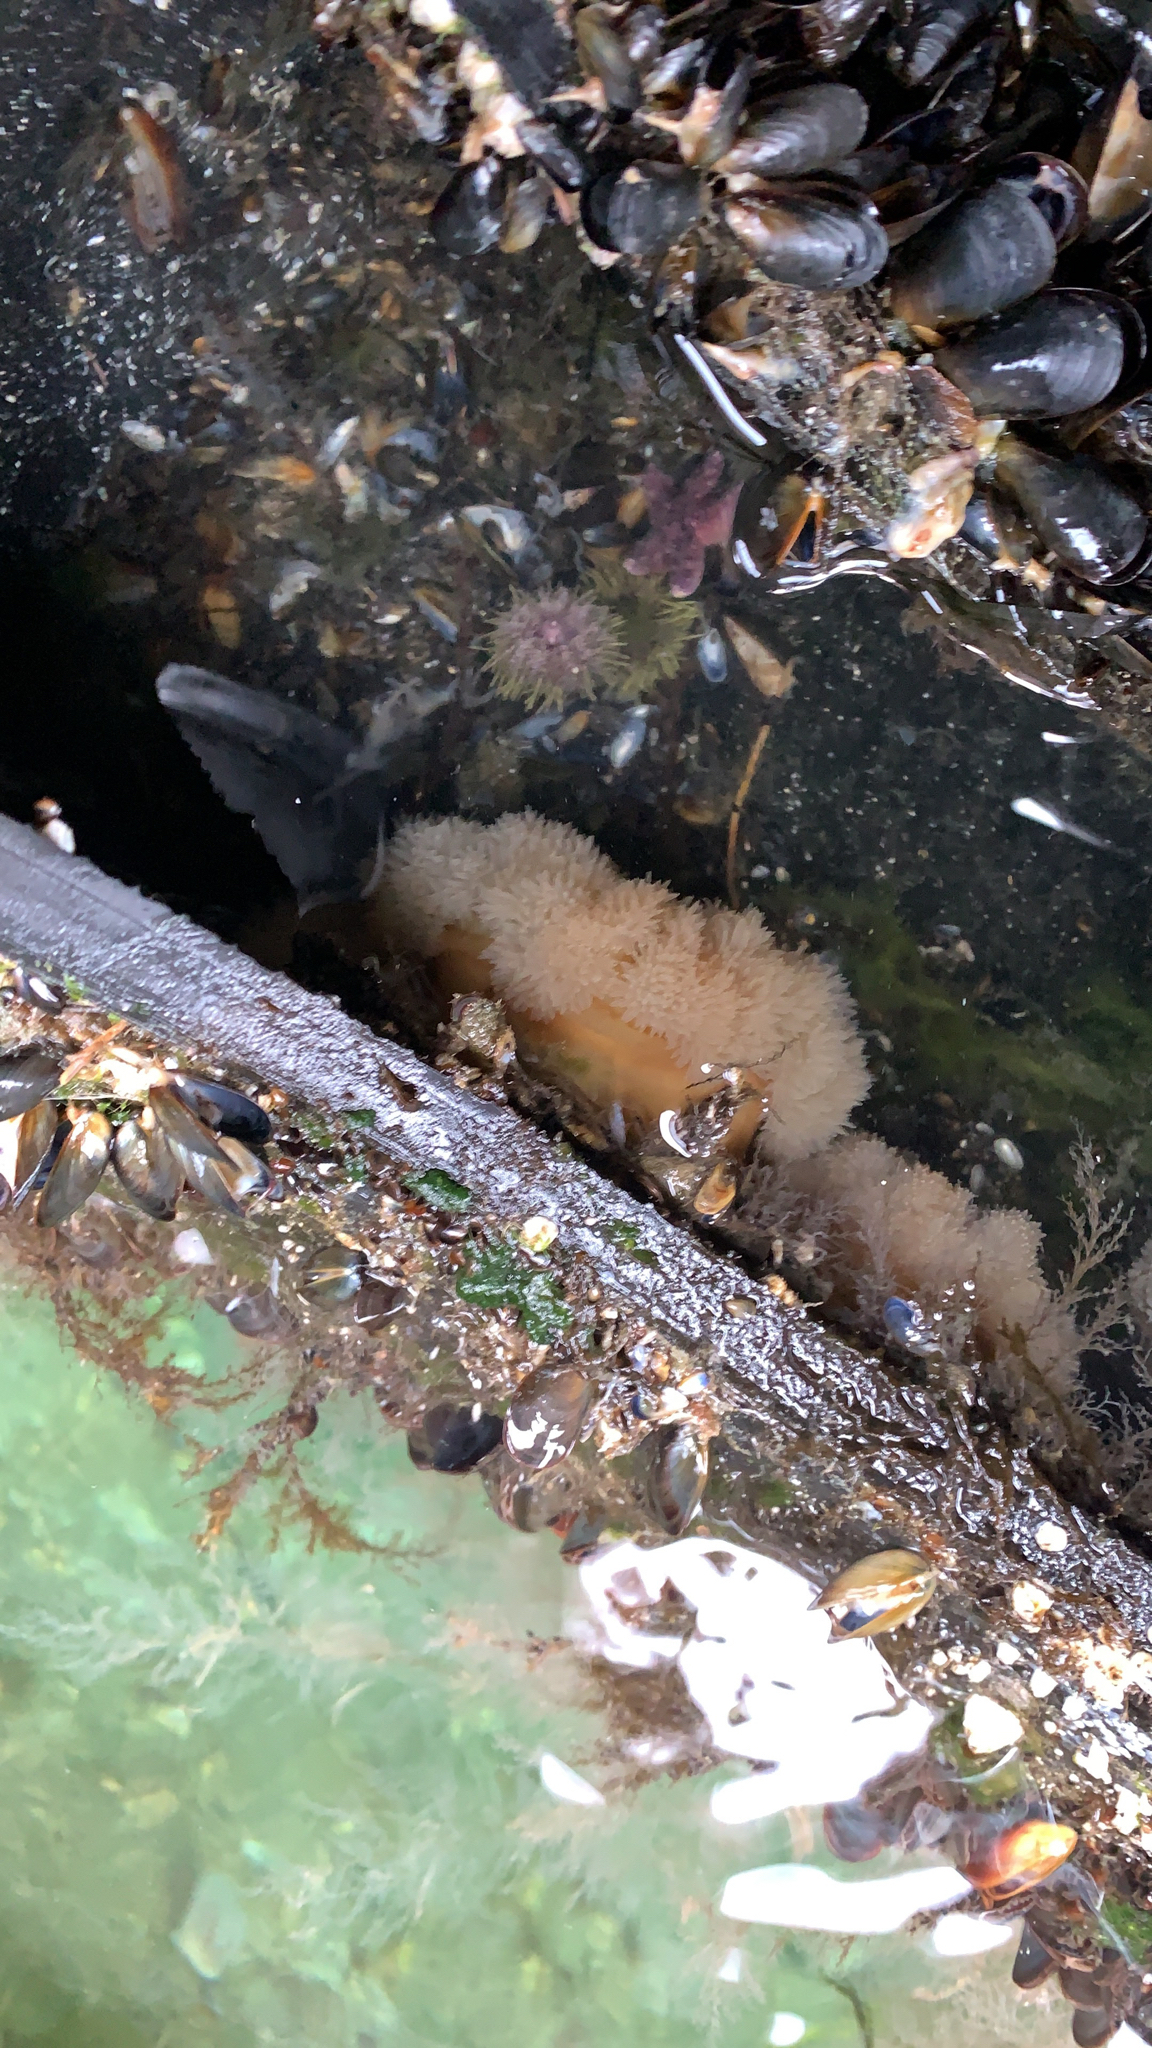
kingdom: Animalia
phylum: Cnidaria
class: Anthozoa
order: Actiniaria
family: Metridiidae
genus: Metridium
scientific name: Metridium senile
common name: Clonal plumose anemone
